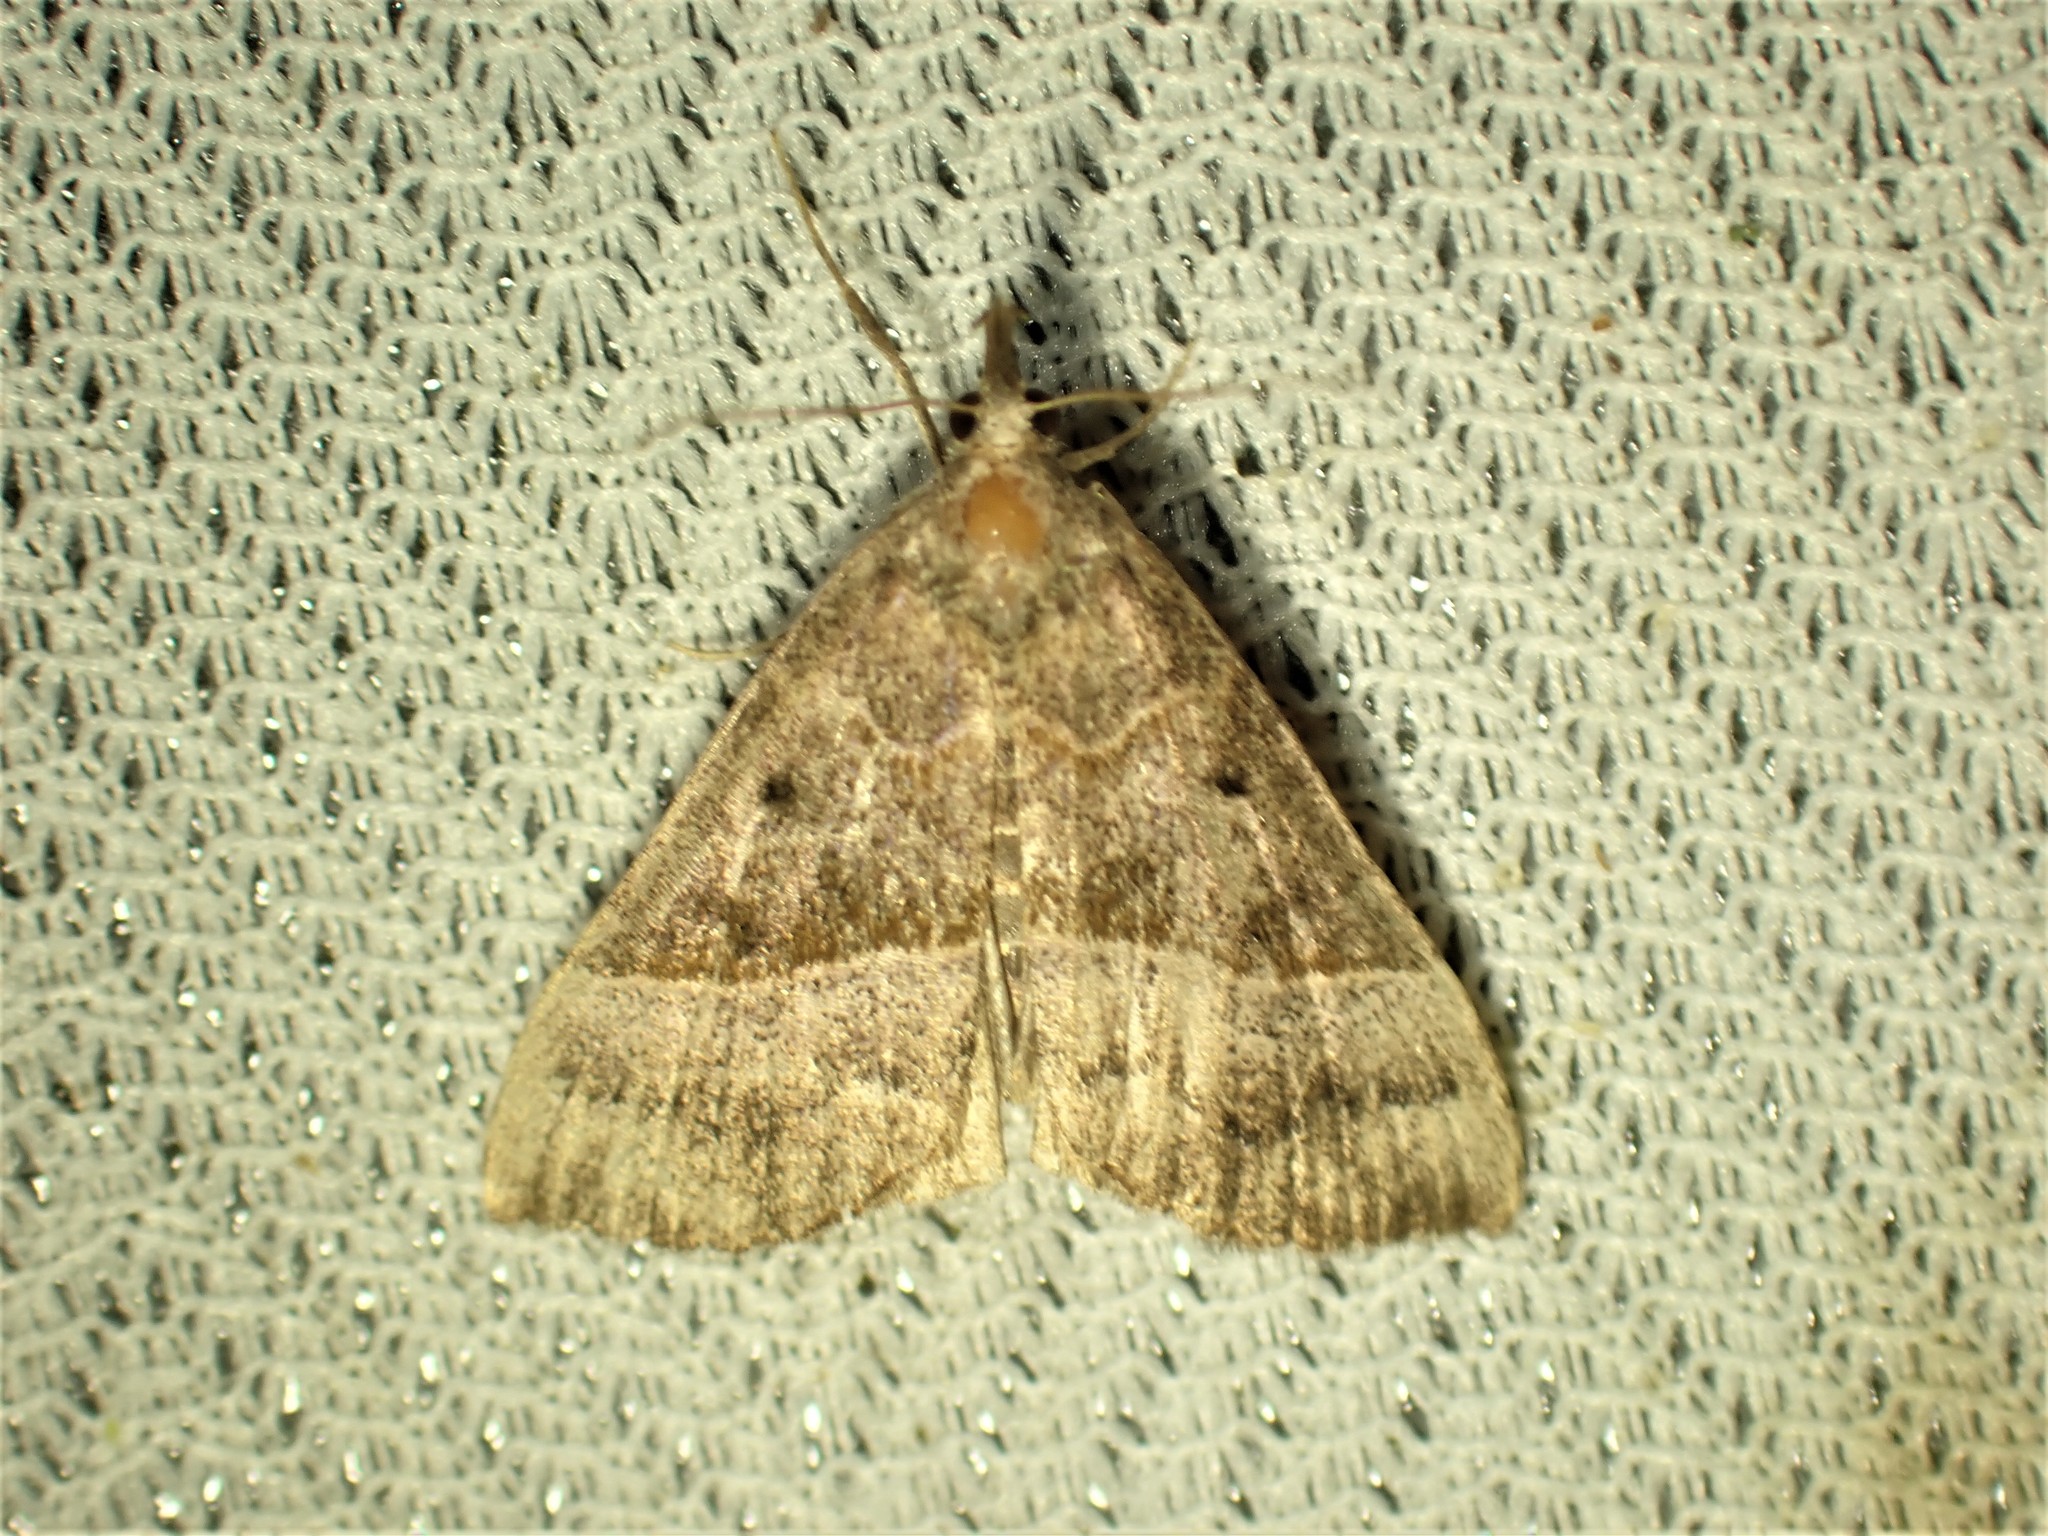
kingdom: Animalia
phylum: Arthropoda
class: Insecta
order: Lepidoptera
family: Erebidae
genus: Hypena
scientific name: Hypena eductalis
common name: Red-footed snout
